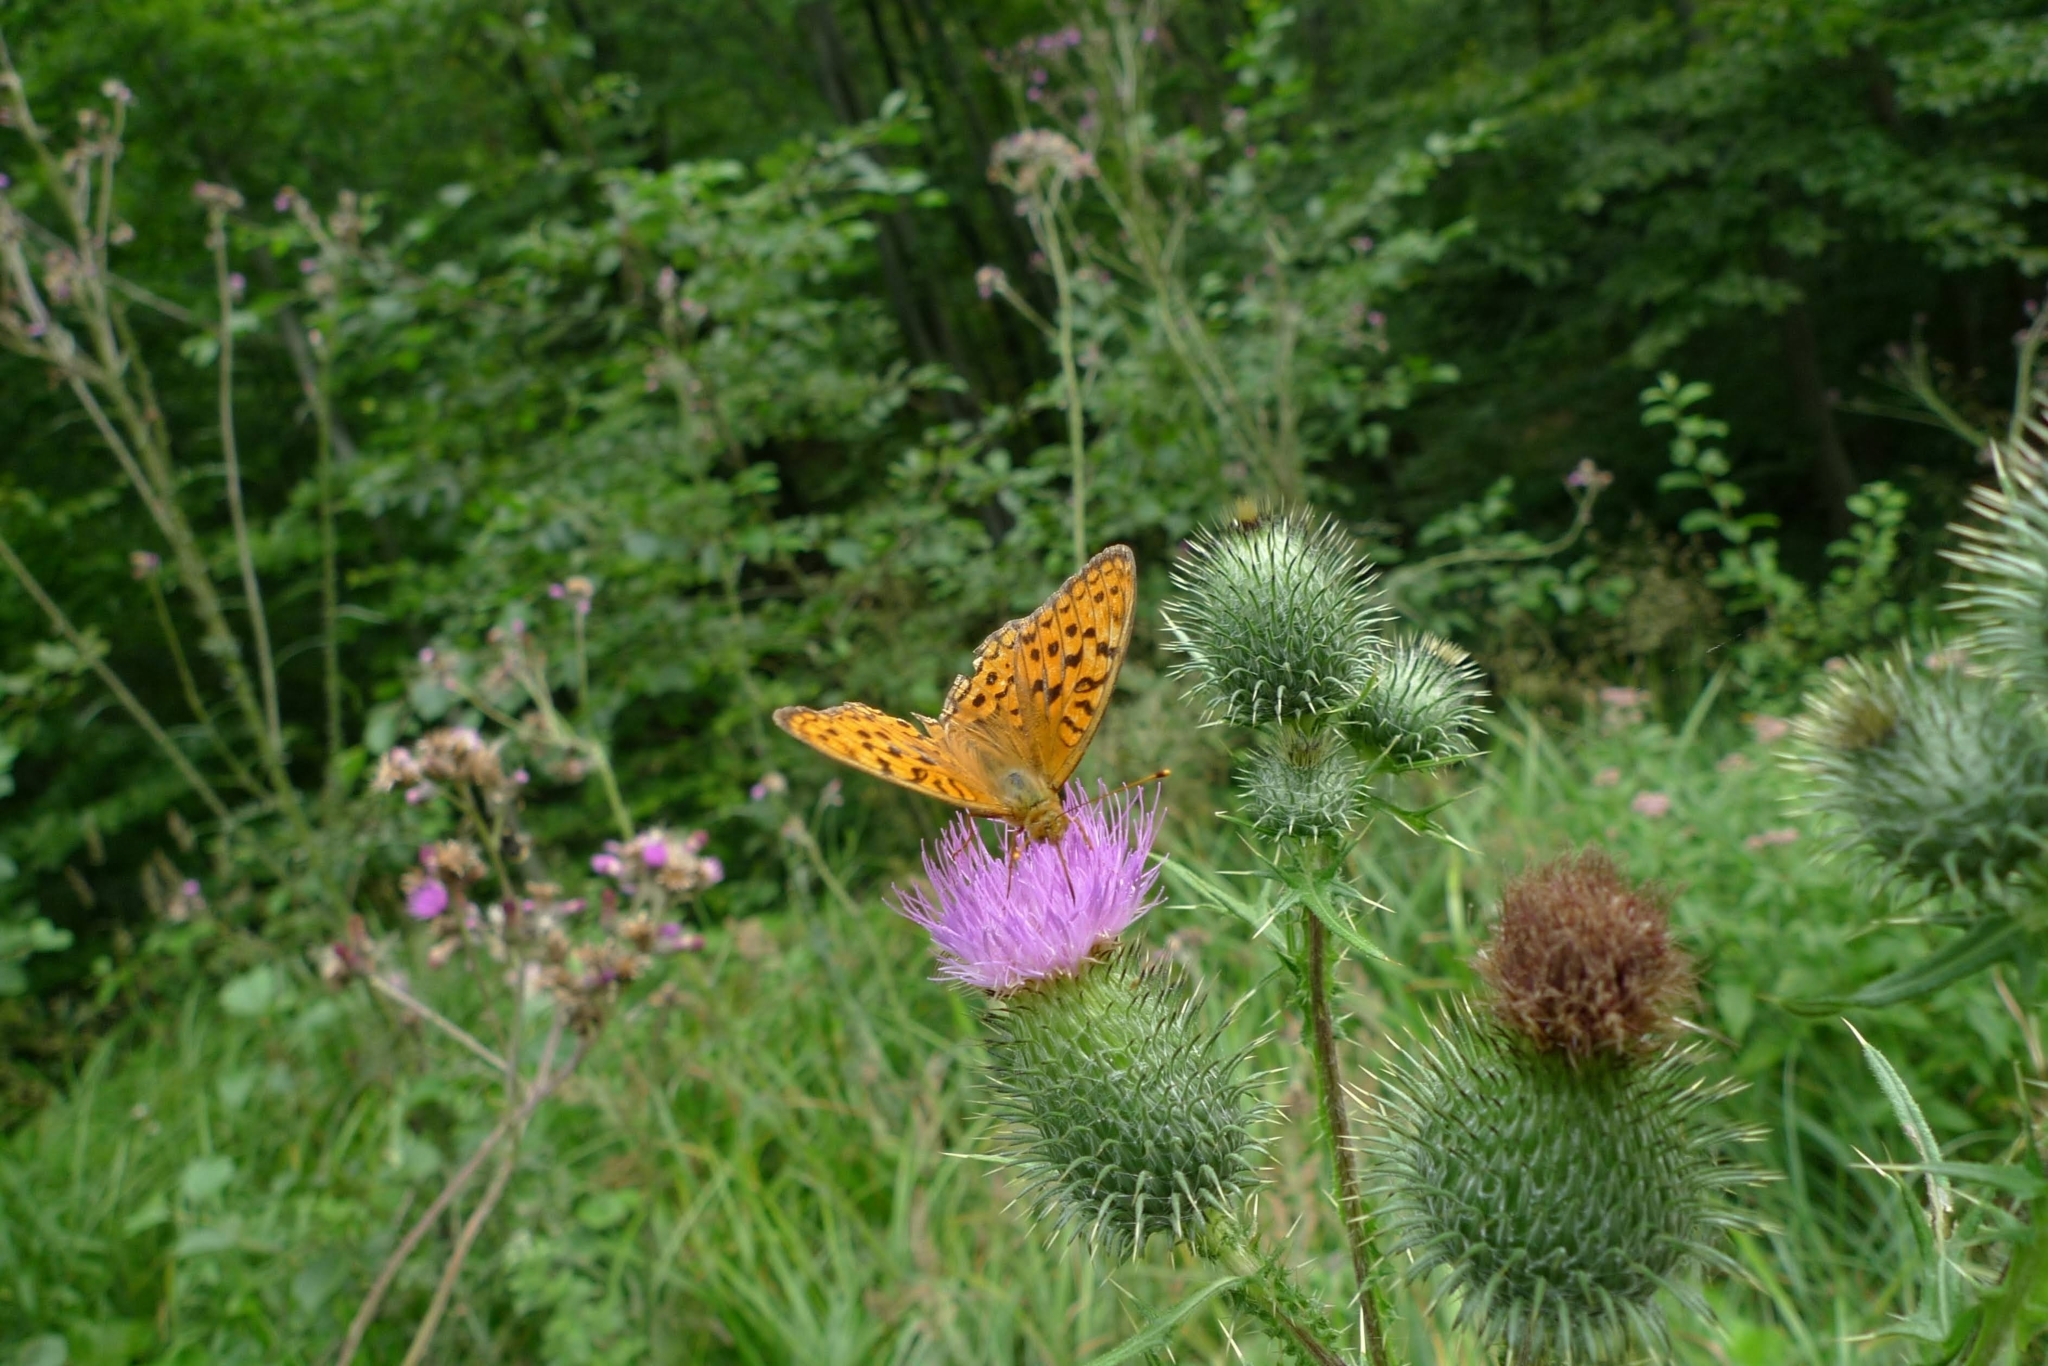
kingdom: Animalia
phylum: Arthropoda
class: Insecta
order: Lepidoptera
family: Nymphalidae
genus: Fabriciana
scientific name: Fabriciana adippe
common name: High brown fritillary
